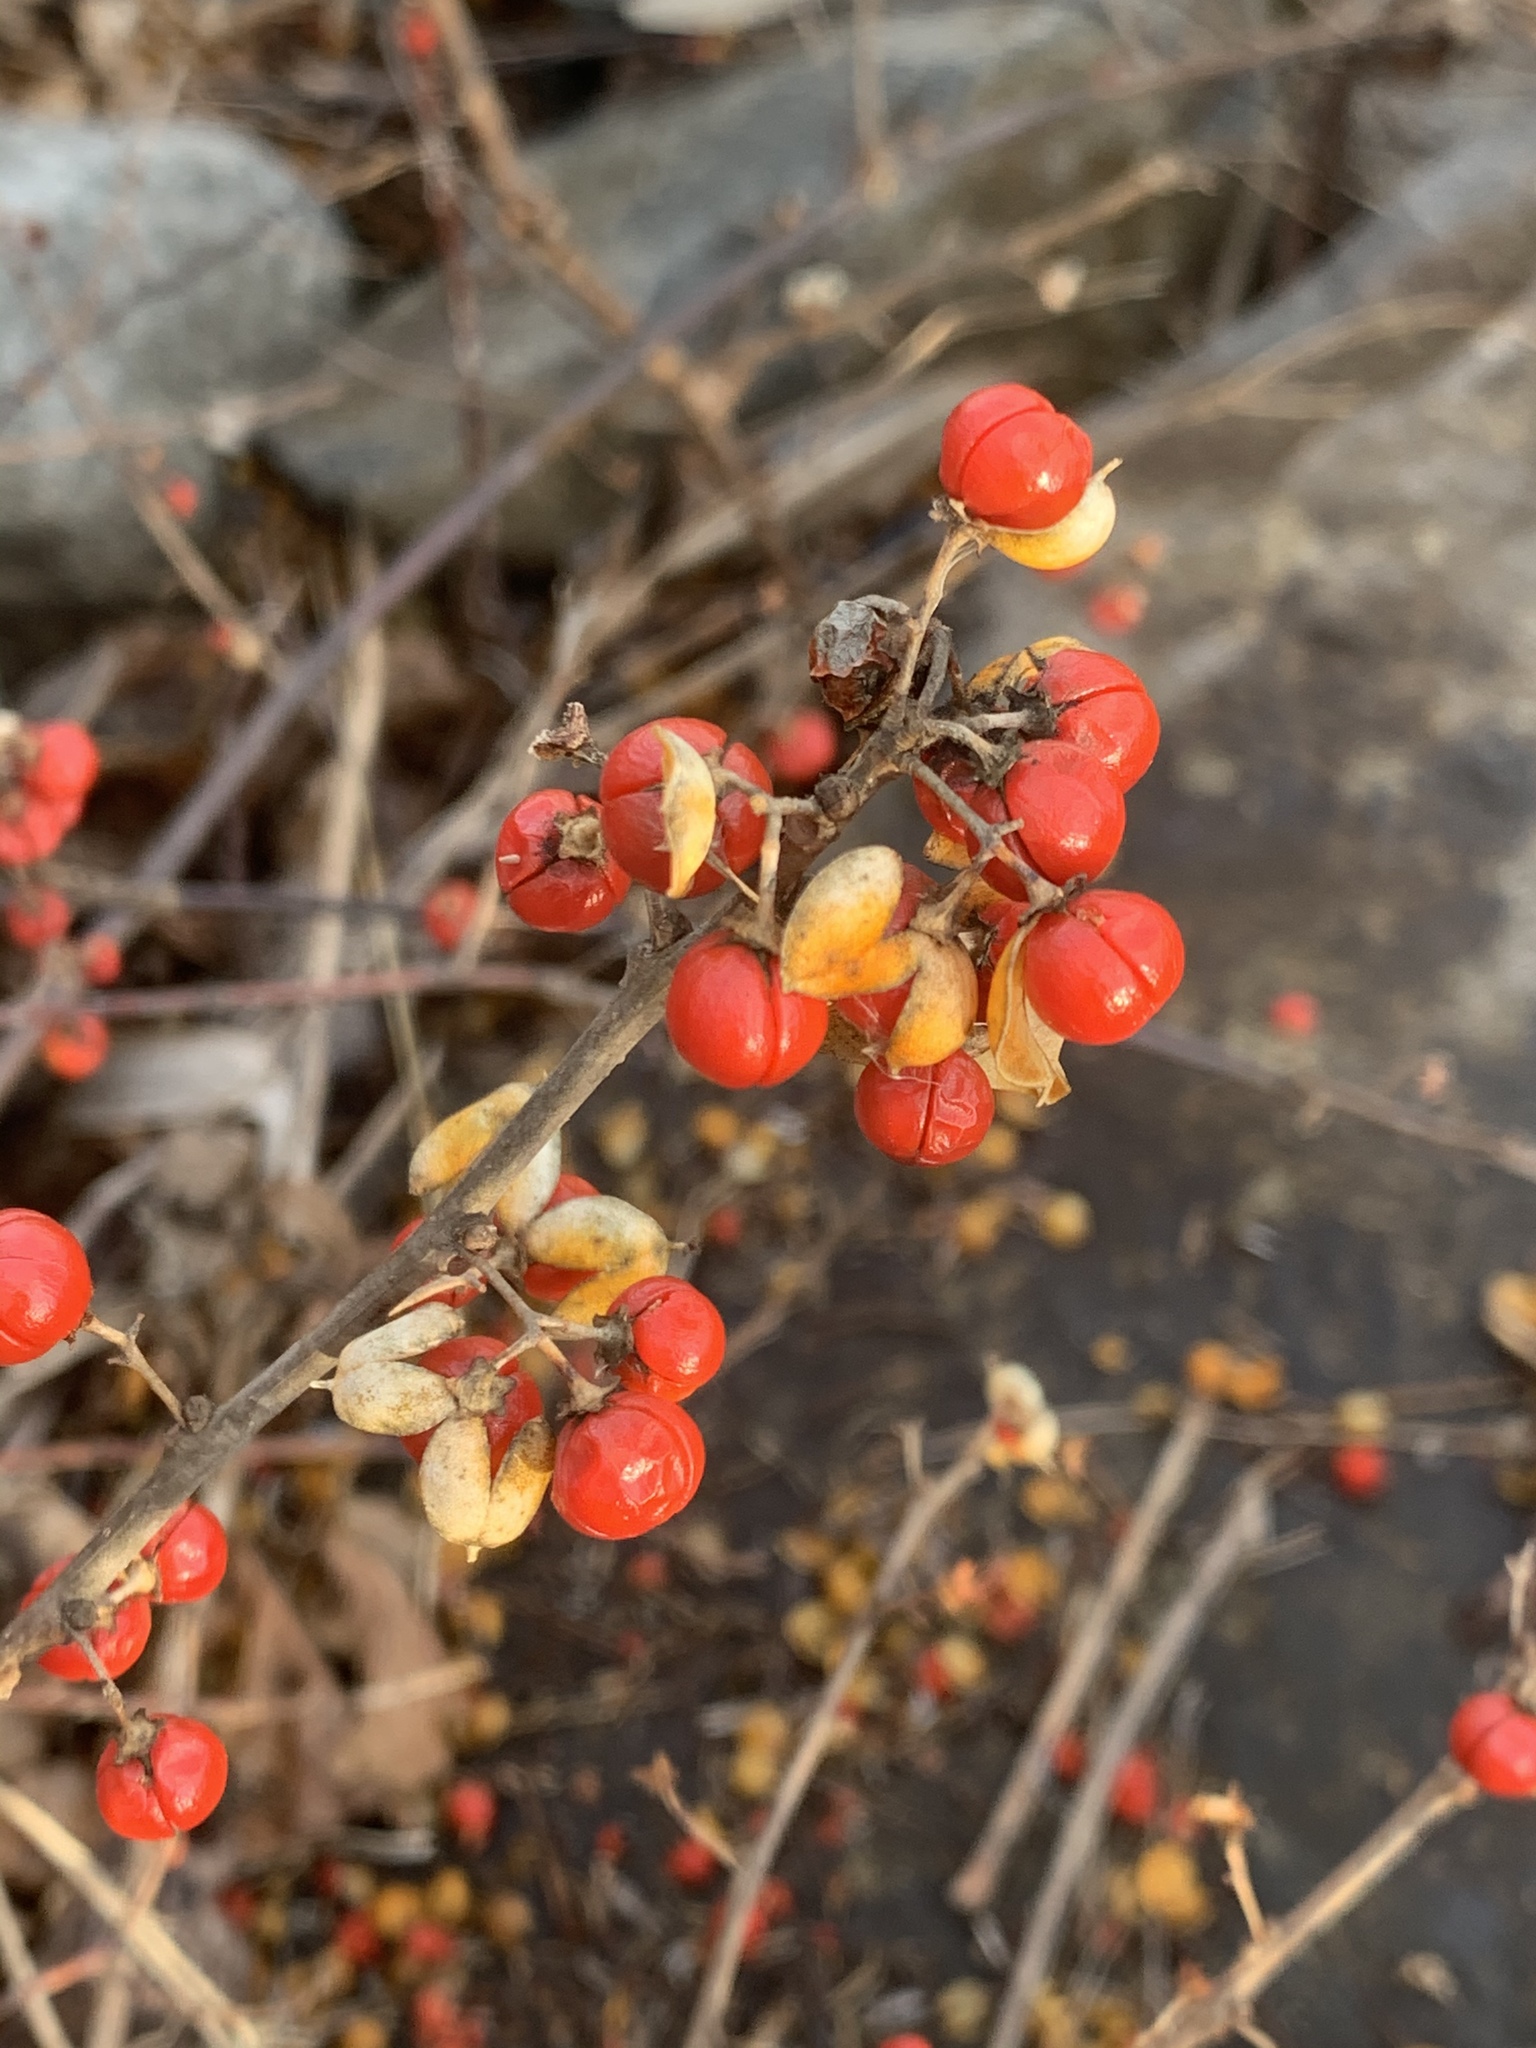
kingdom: Plantae
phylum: Tracheophyta
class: Magnoliopsida
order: Celastrales
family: Celastraceae
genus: Celastrus
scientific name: Celastrus orbiculatus
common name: Oriental bittersweet
